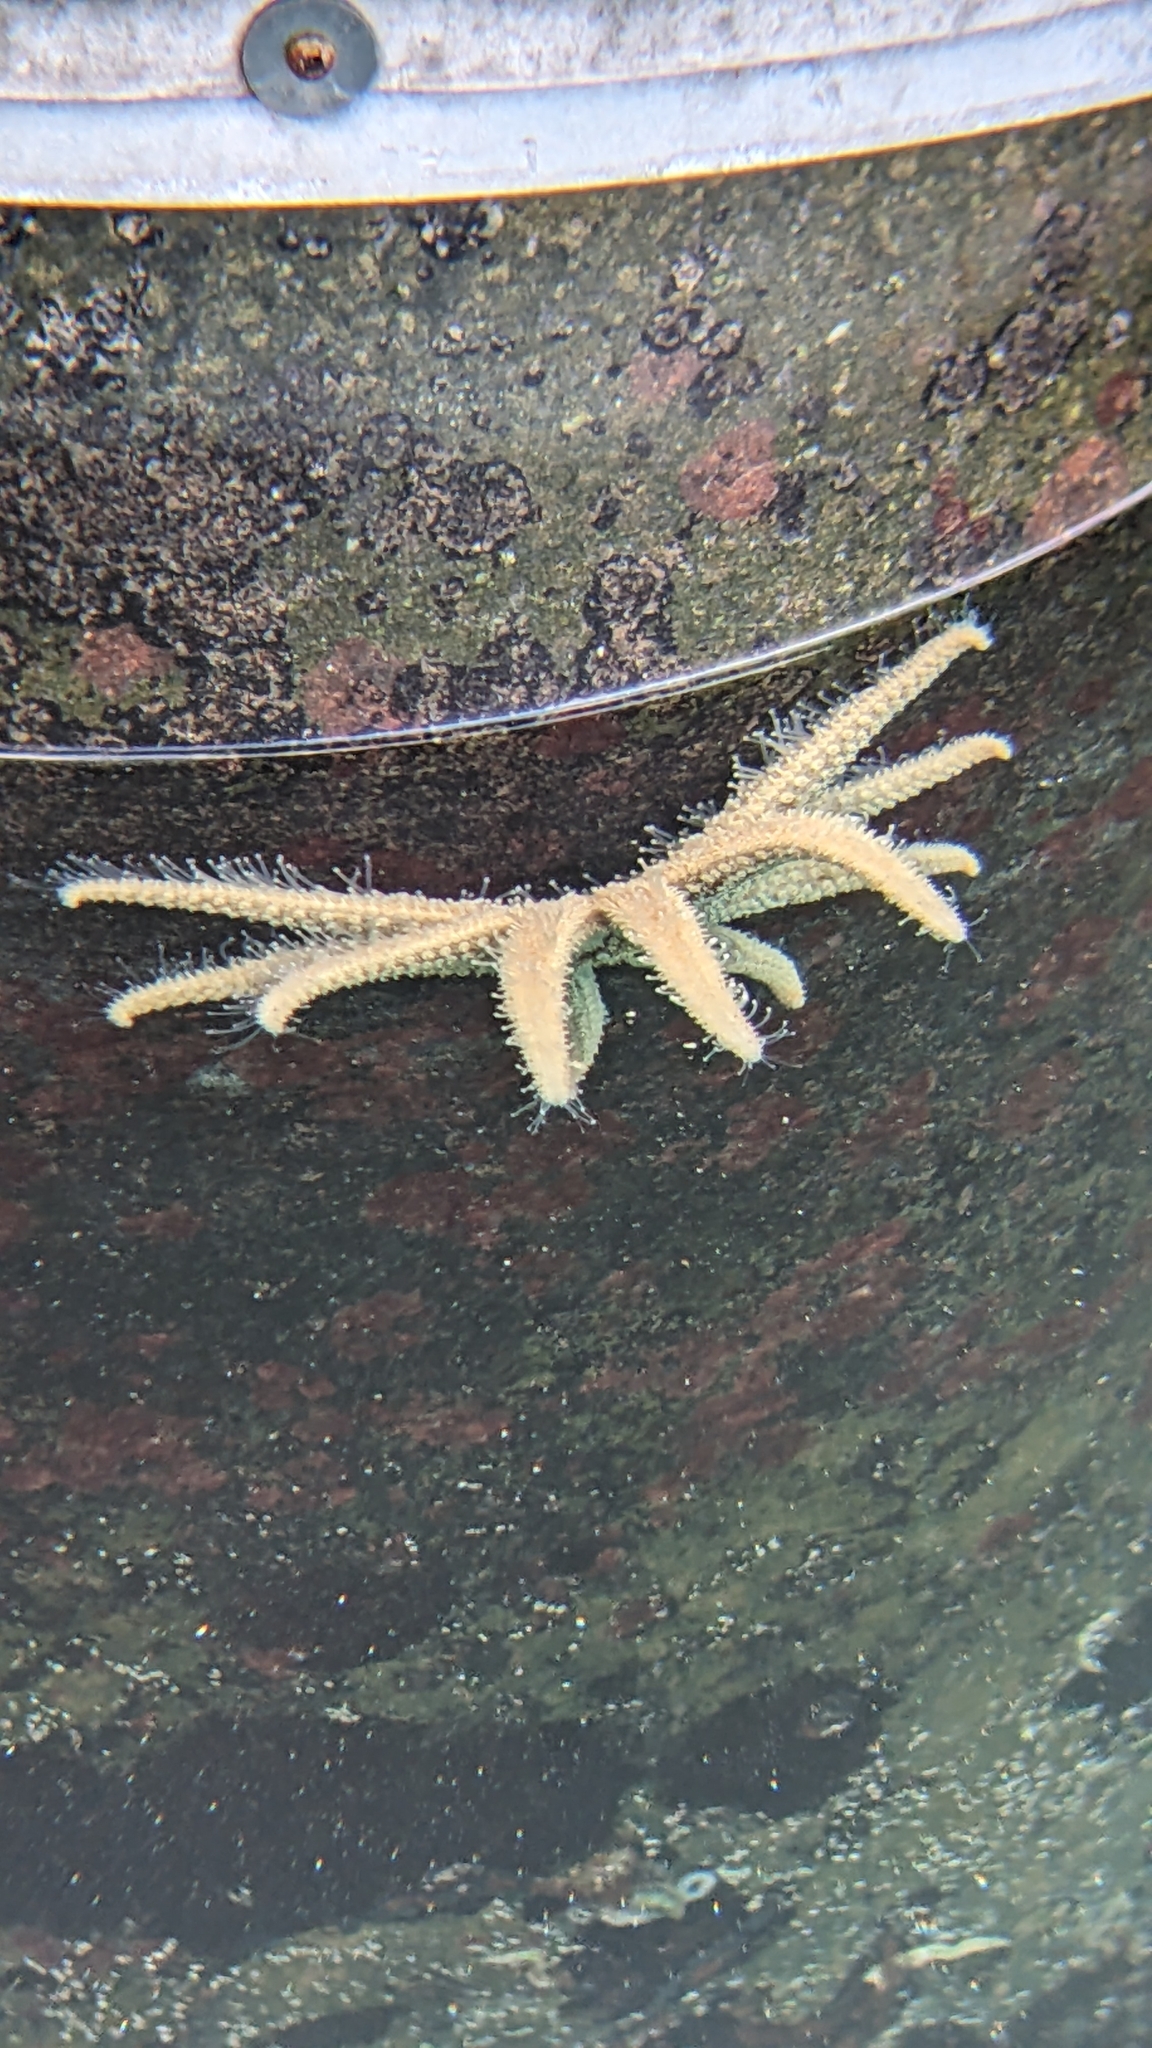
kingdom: Animalia
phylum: Echinodermata
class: Asteroidea
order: Forcipulatida
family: Asteriidae
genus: Coscinasterias
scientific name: Coscinasterias muricata
